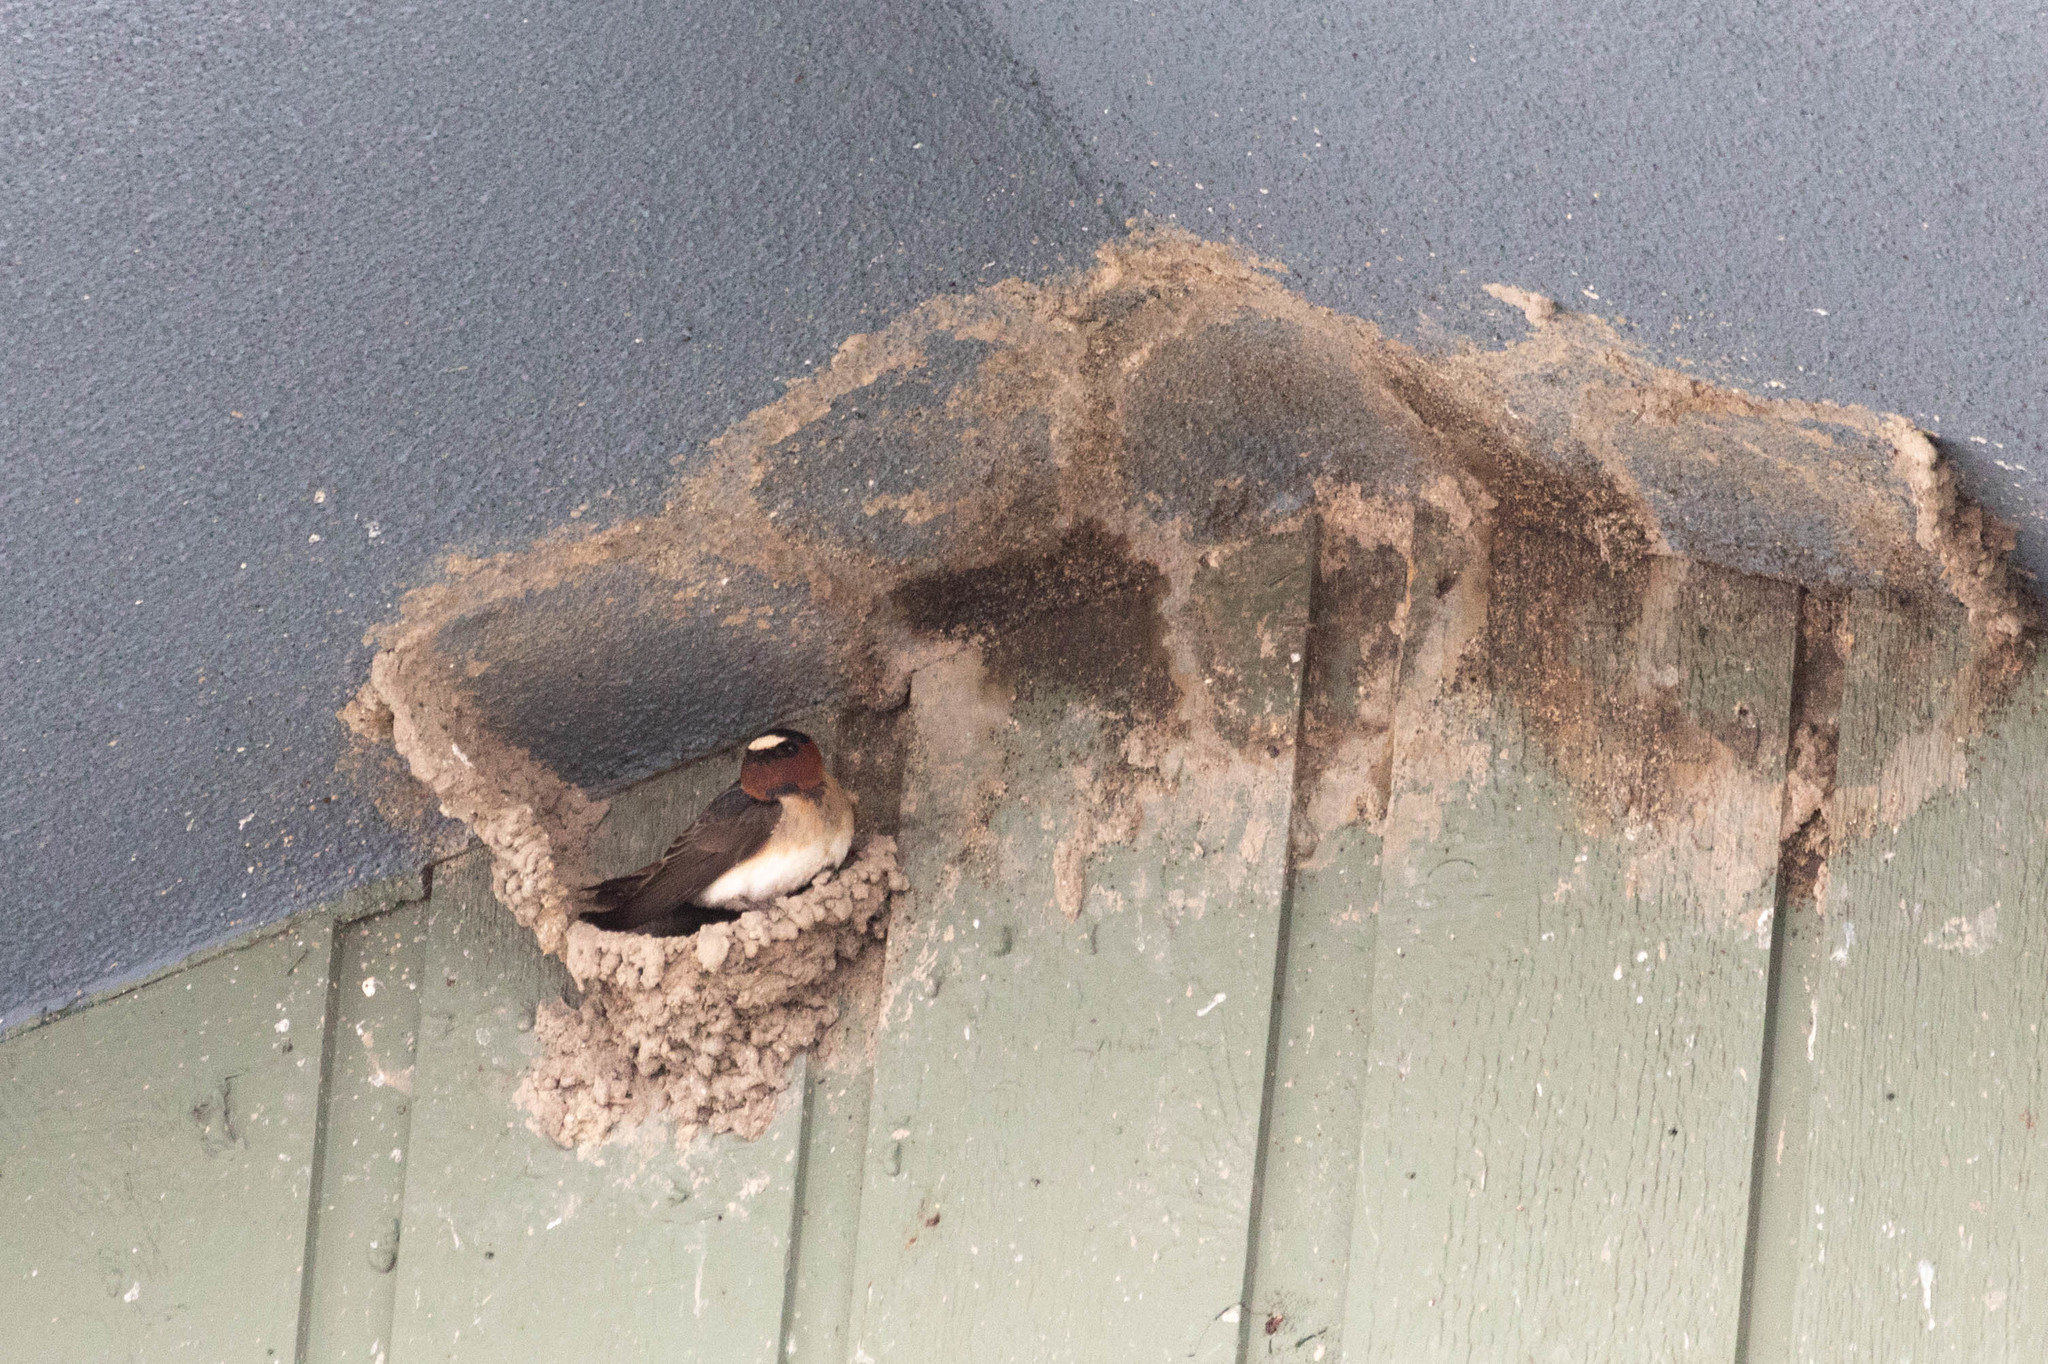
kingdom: Animalia
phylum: Chordata
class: Aves
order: Passeriformes
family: Hirundinidae
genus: Petrochelidon
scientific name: Petrochelidon pyrrhonota
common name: American cliff swallow
